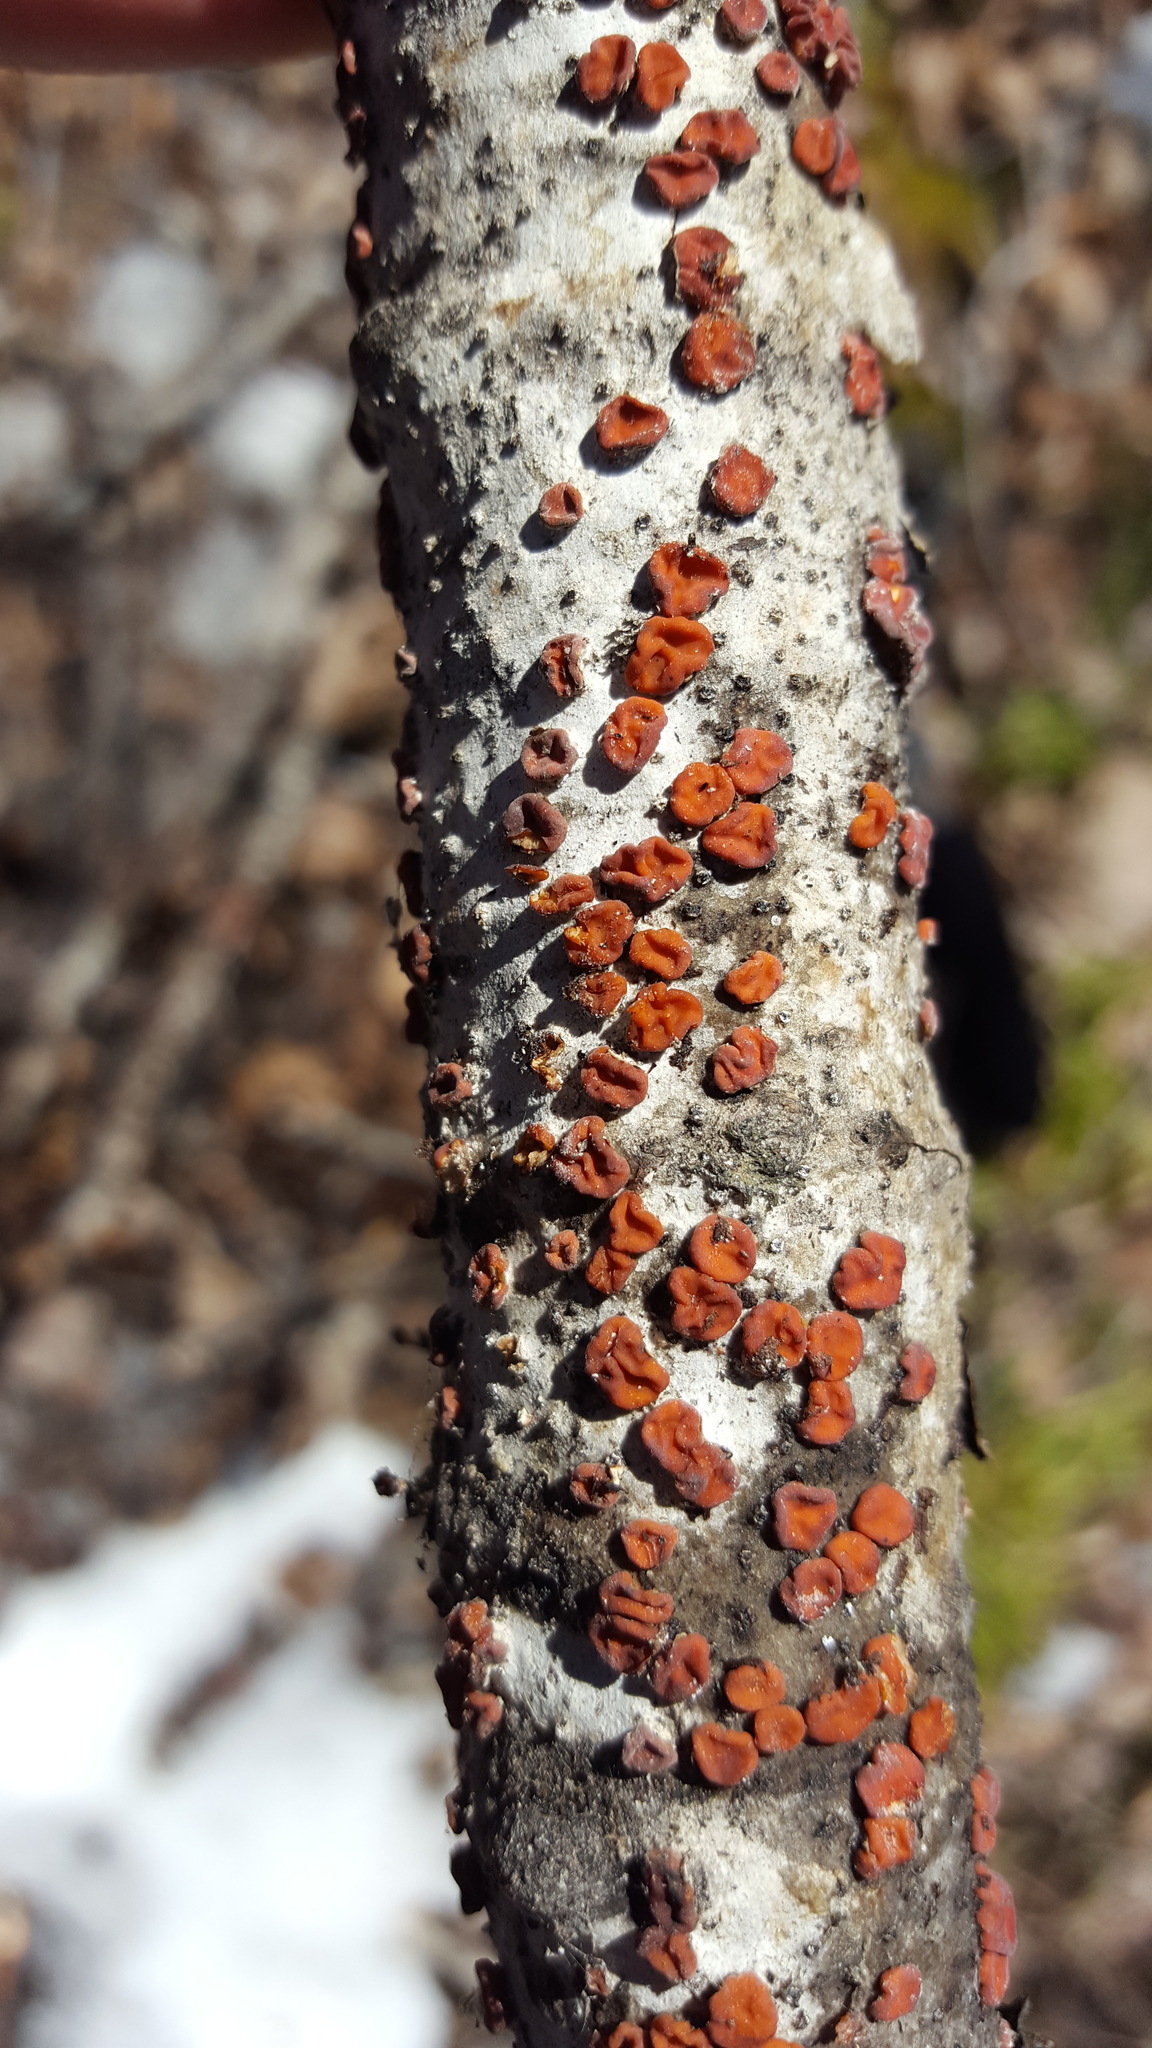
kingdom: Fungi
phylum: Basidiomycota
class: Agaricomycetes
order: Russulales
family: Peniophoraceae
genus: Peniophora
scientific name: Peniophora rufa
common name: Red tree brain fungus
